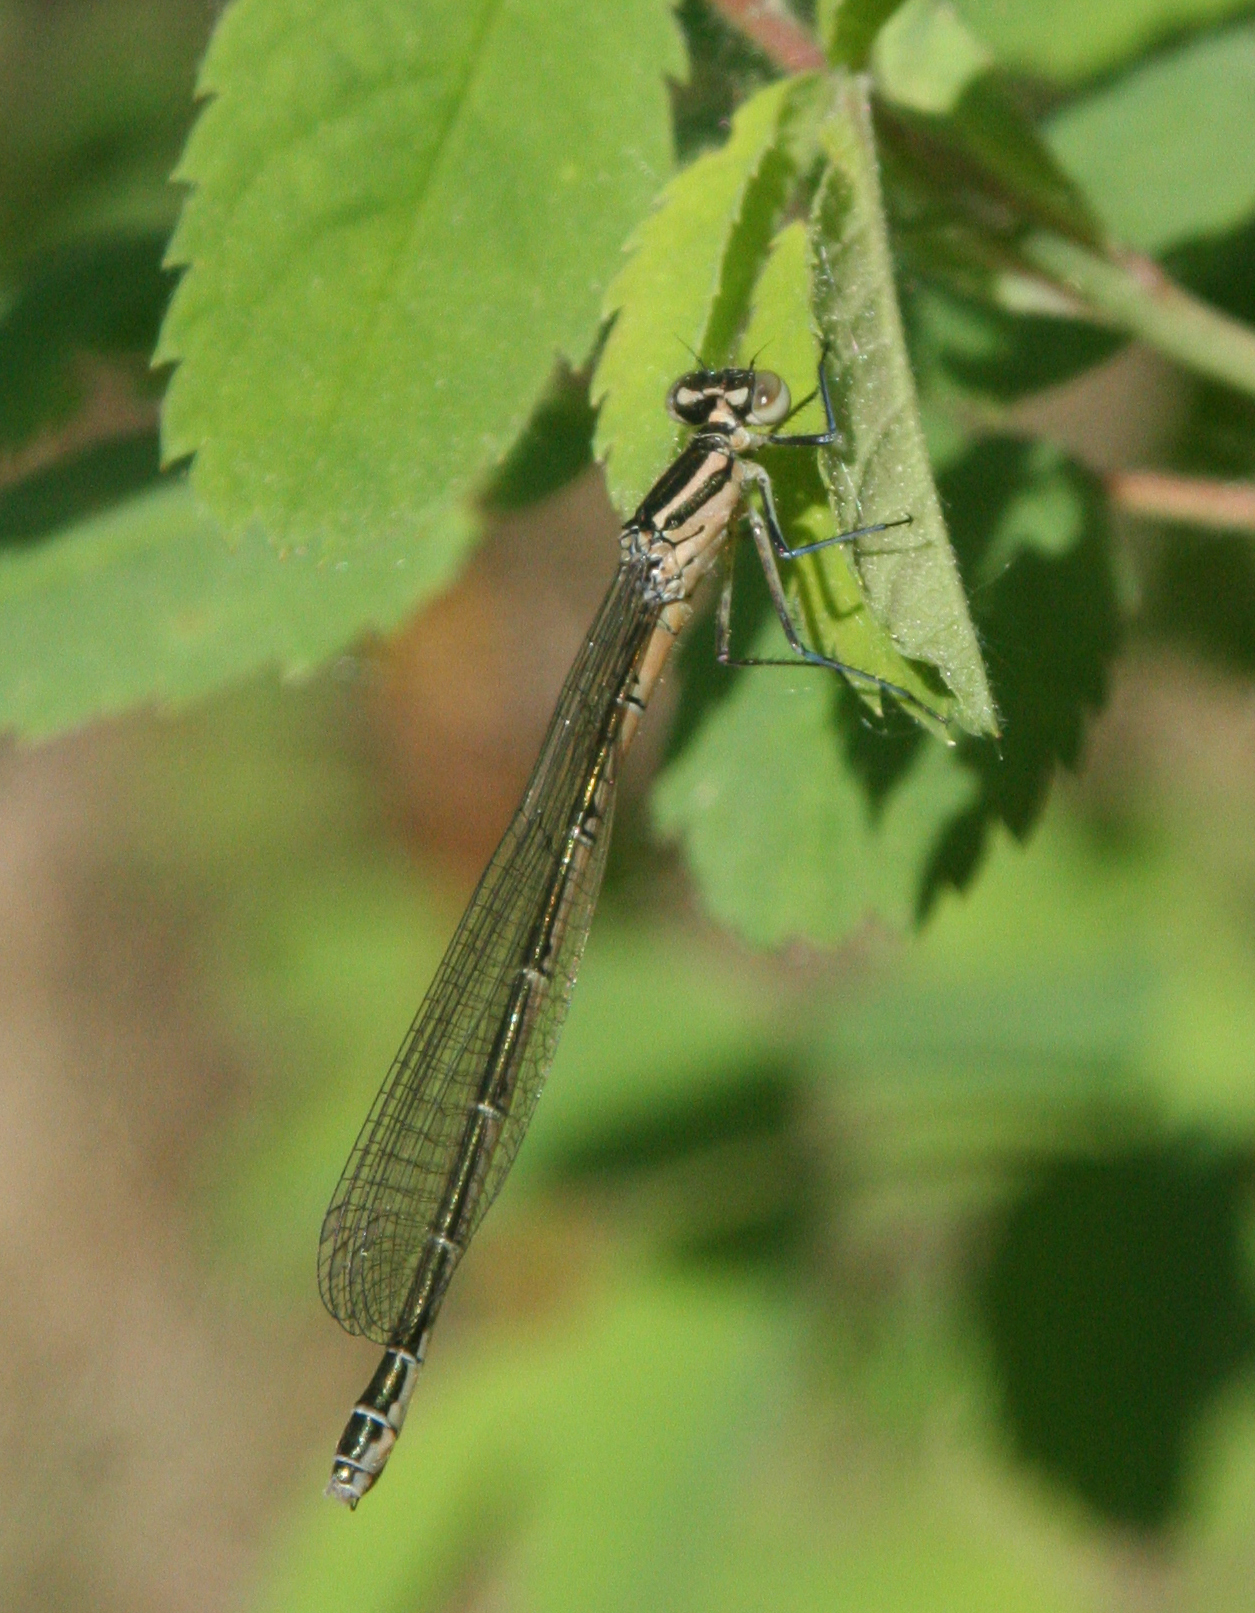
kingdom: Animalia
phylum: Arthropoda
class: Insecta
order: Odonata
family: Coenagrionidae
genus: Coenagrion
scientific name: Coenagrion hastulatum
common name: Spearhead bluet
